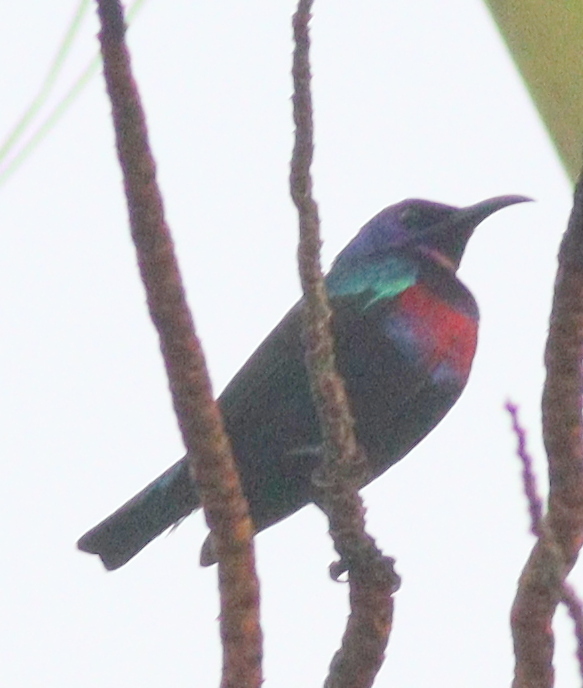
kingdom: Animalia
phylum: Chordata
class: Aves
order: Passeriformes
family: Nectariniidae
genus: Cinnyris
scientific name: Cinnyris coccinigastrus
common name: Splendid sunbird
